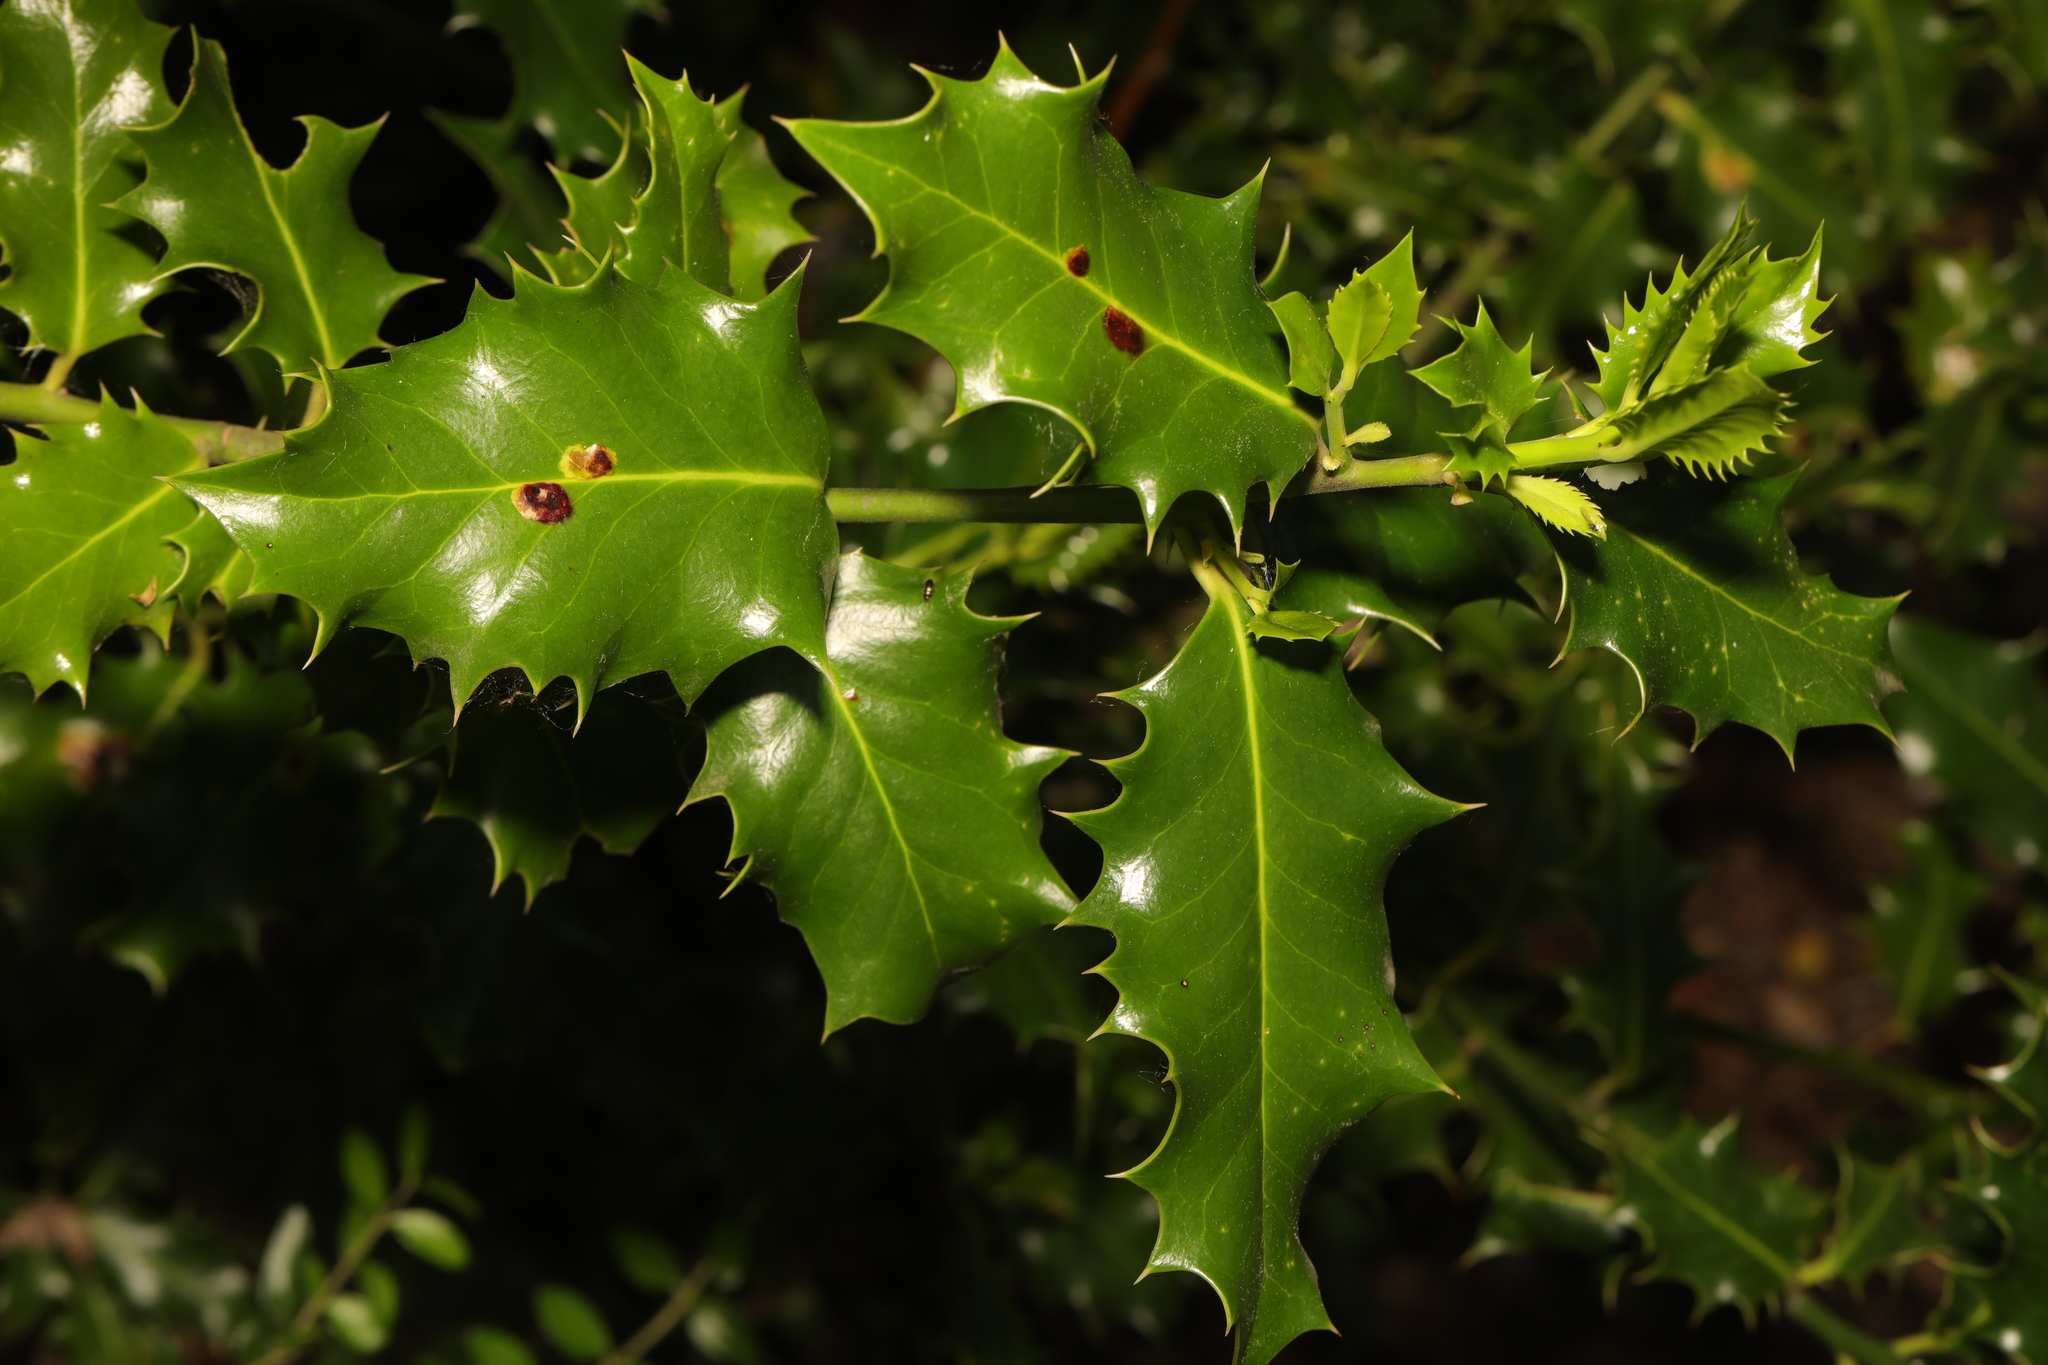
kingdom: Plantae
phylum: Tracheophyta
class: Magnoliopsida
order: Aquifoliales
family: Aquifoliaceae
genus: Ilex
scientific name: Ilex aquifolium
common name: English holly
